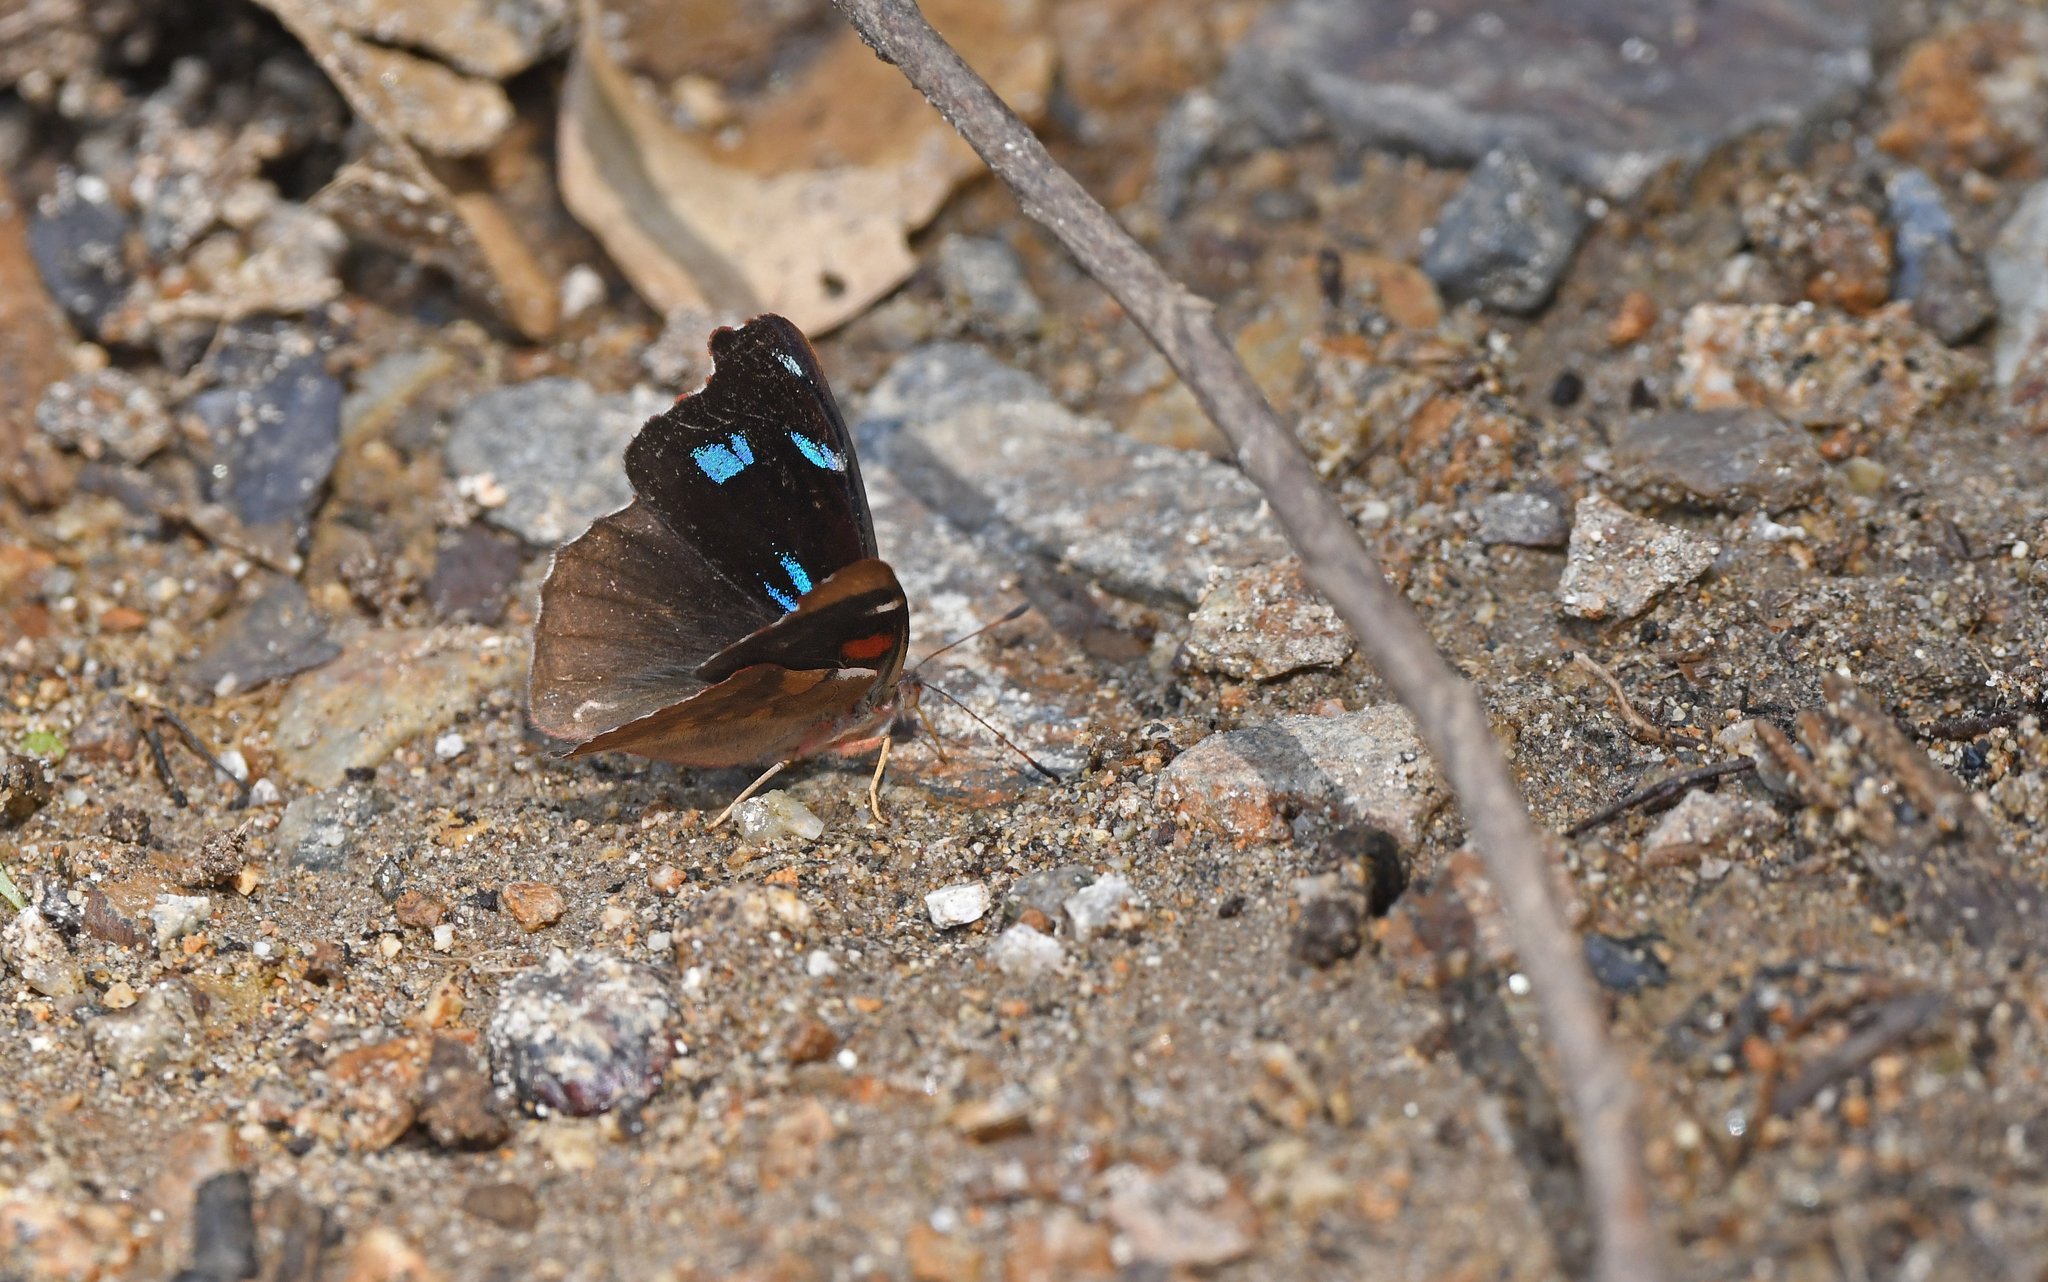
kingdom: Animalia
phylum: Arthropoda
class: Insecta
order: Lepidoptera
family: Nymphalidae
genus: Perisama
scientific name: Perisama diotima
